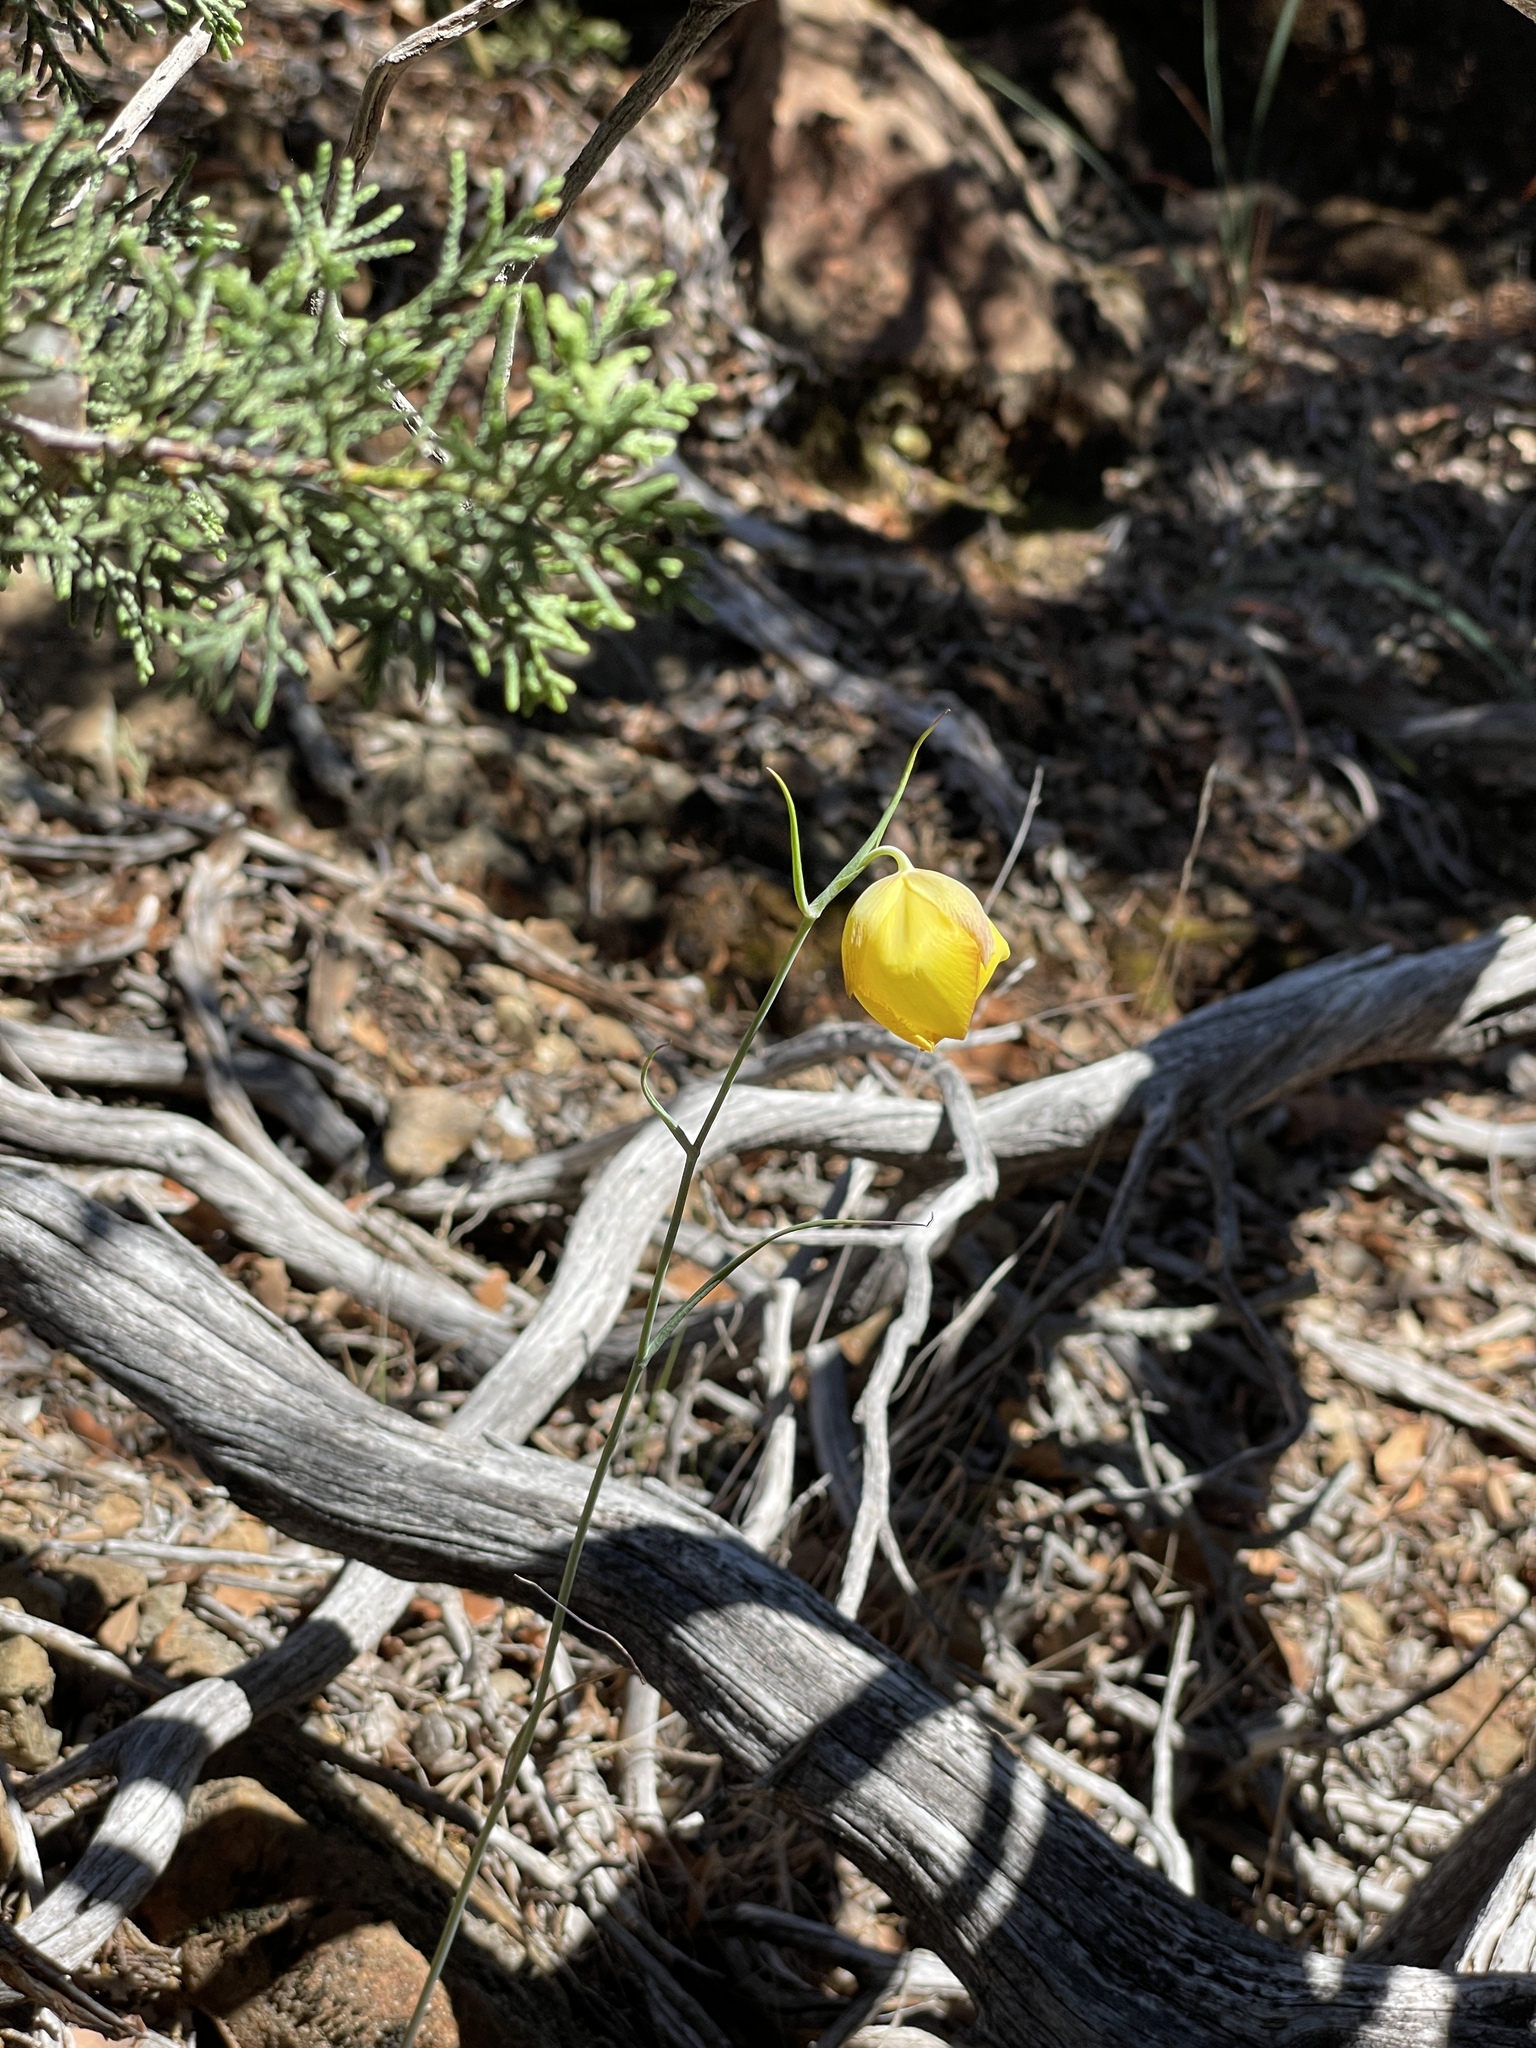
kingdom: Plantae
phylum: Tracheophyta
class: Liliopsida
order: Liliales
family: Liliaceae
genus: Calochortus
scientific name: Calochortus raichei
